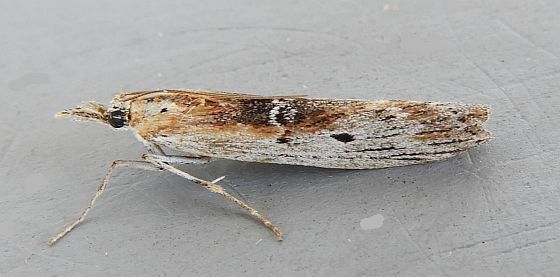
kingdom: Animalia
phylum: Arthropoda
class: Insecta
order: Lepidoptera
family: Pyralidae
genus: Patriciola
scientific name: Patriciola semicana
